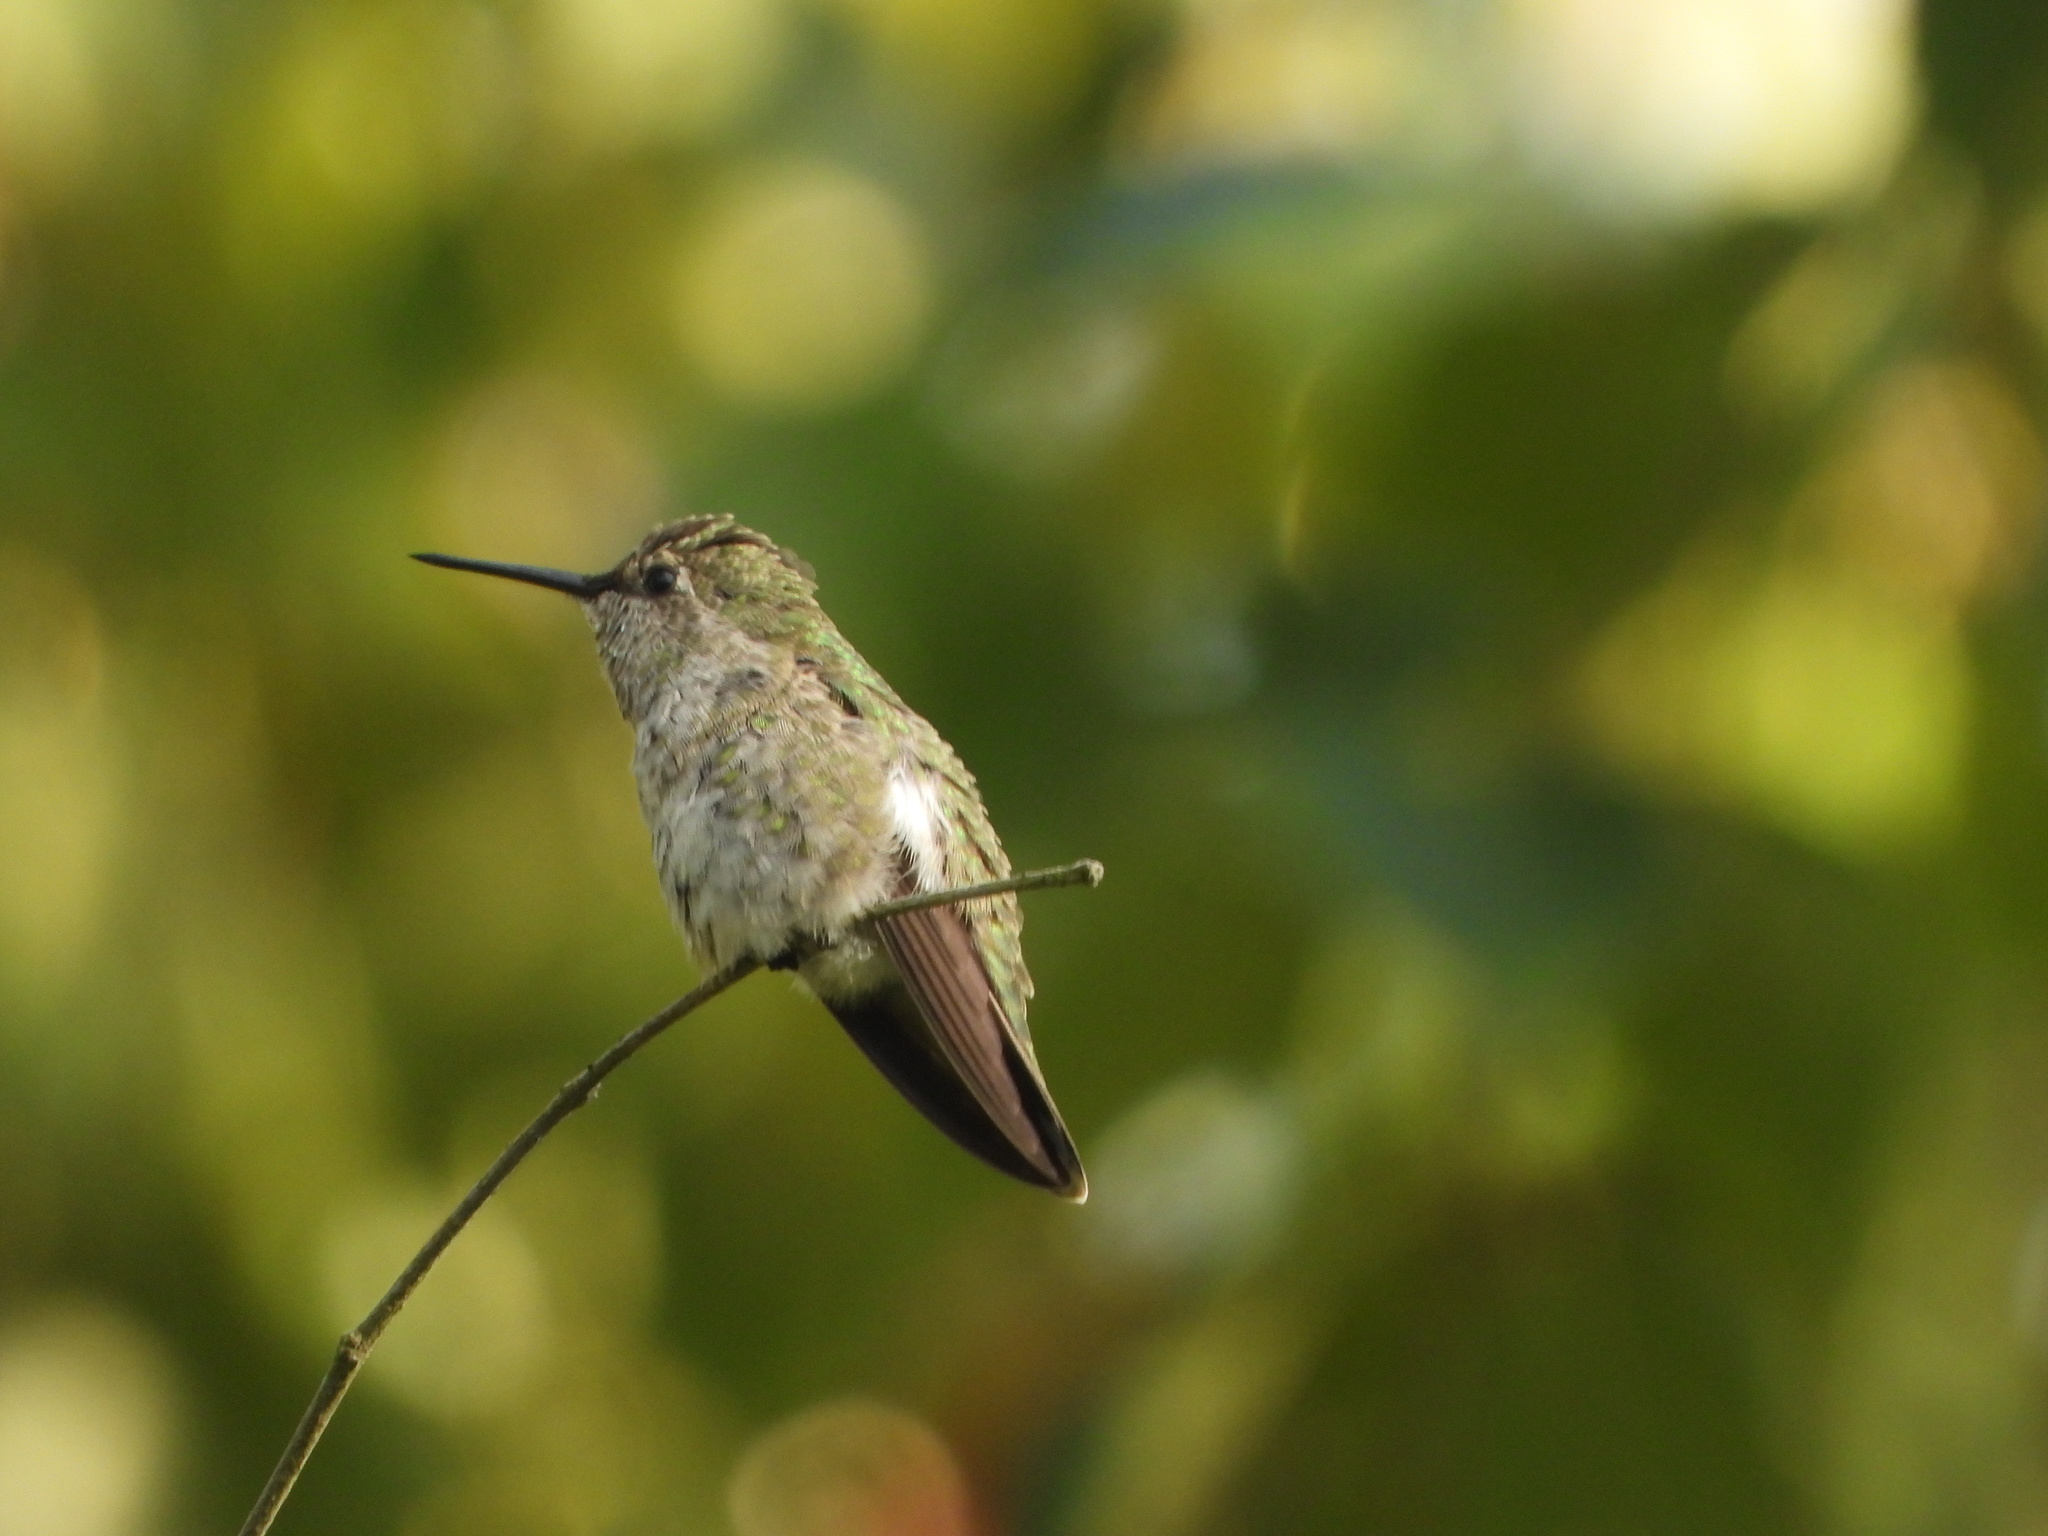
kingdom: Animalia
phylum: Chordata
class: Aves
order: Apodiformes
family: Trochilidae
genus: Calypte
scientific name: Calypte anna
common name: Anna's hummingbird
